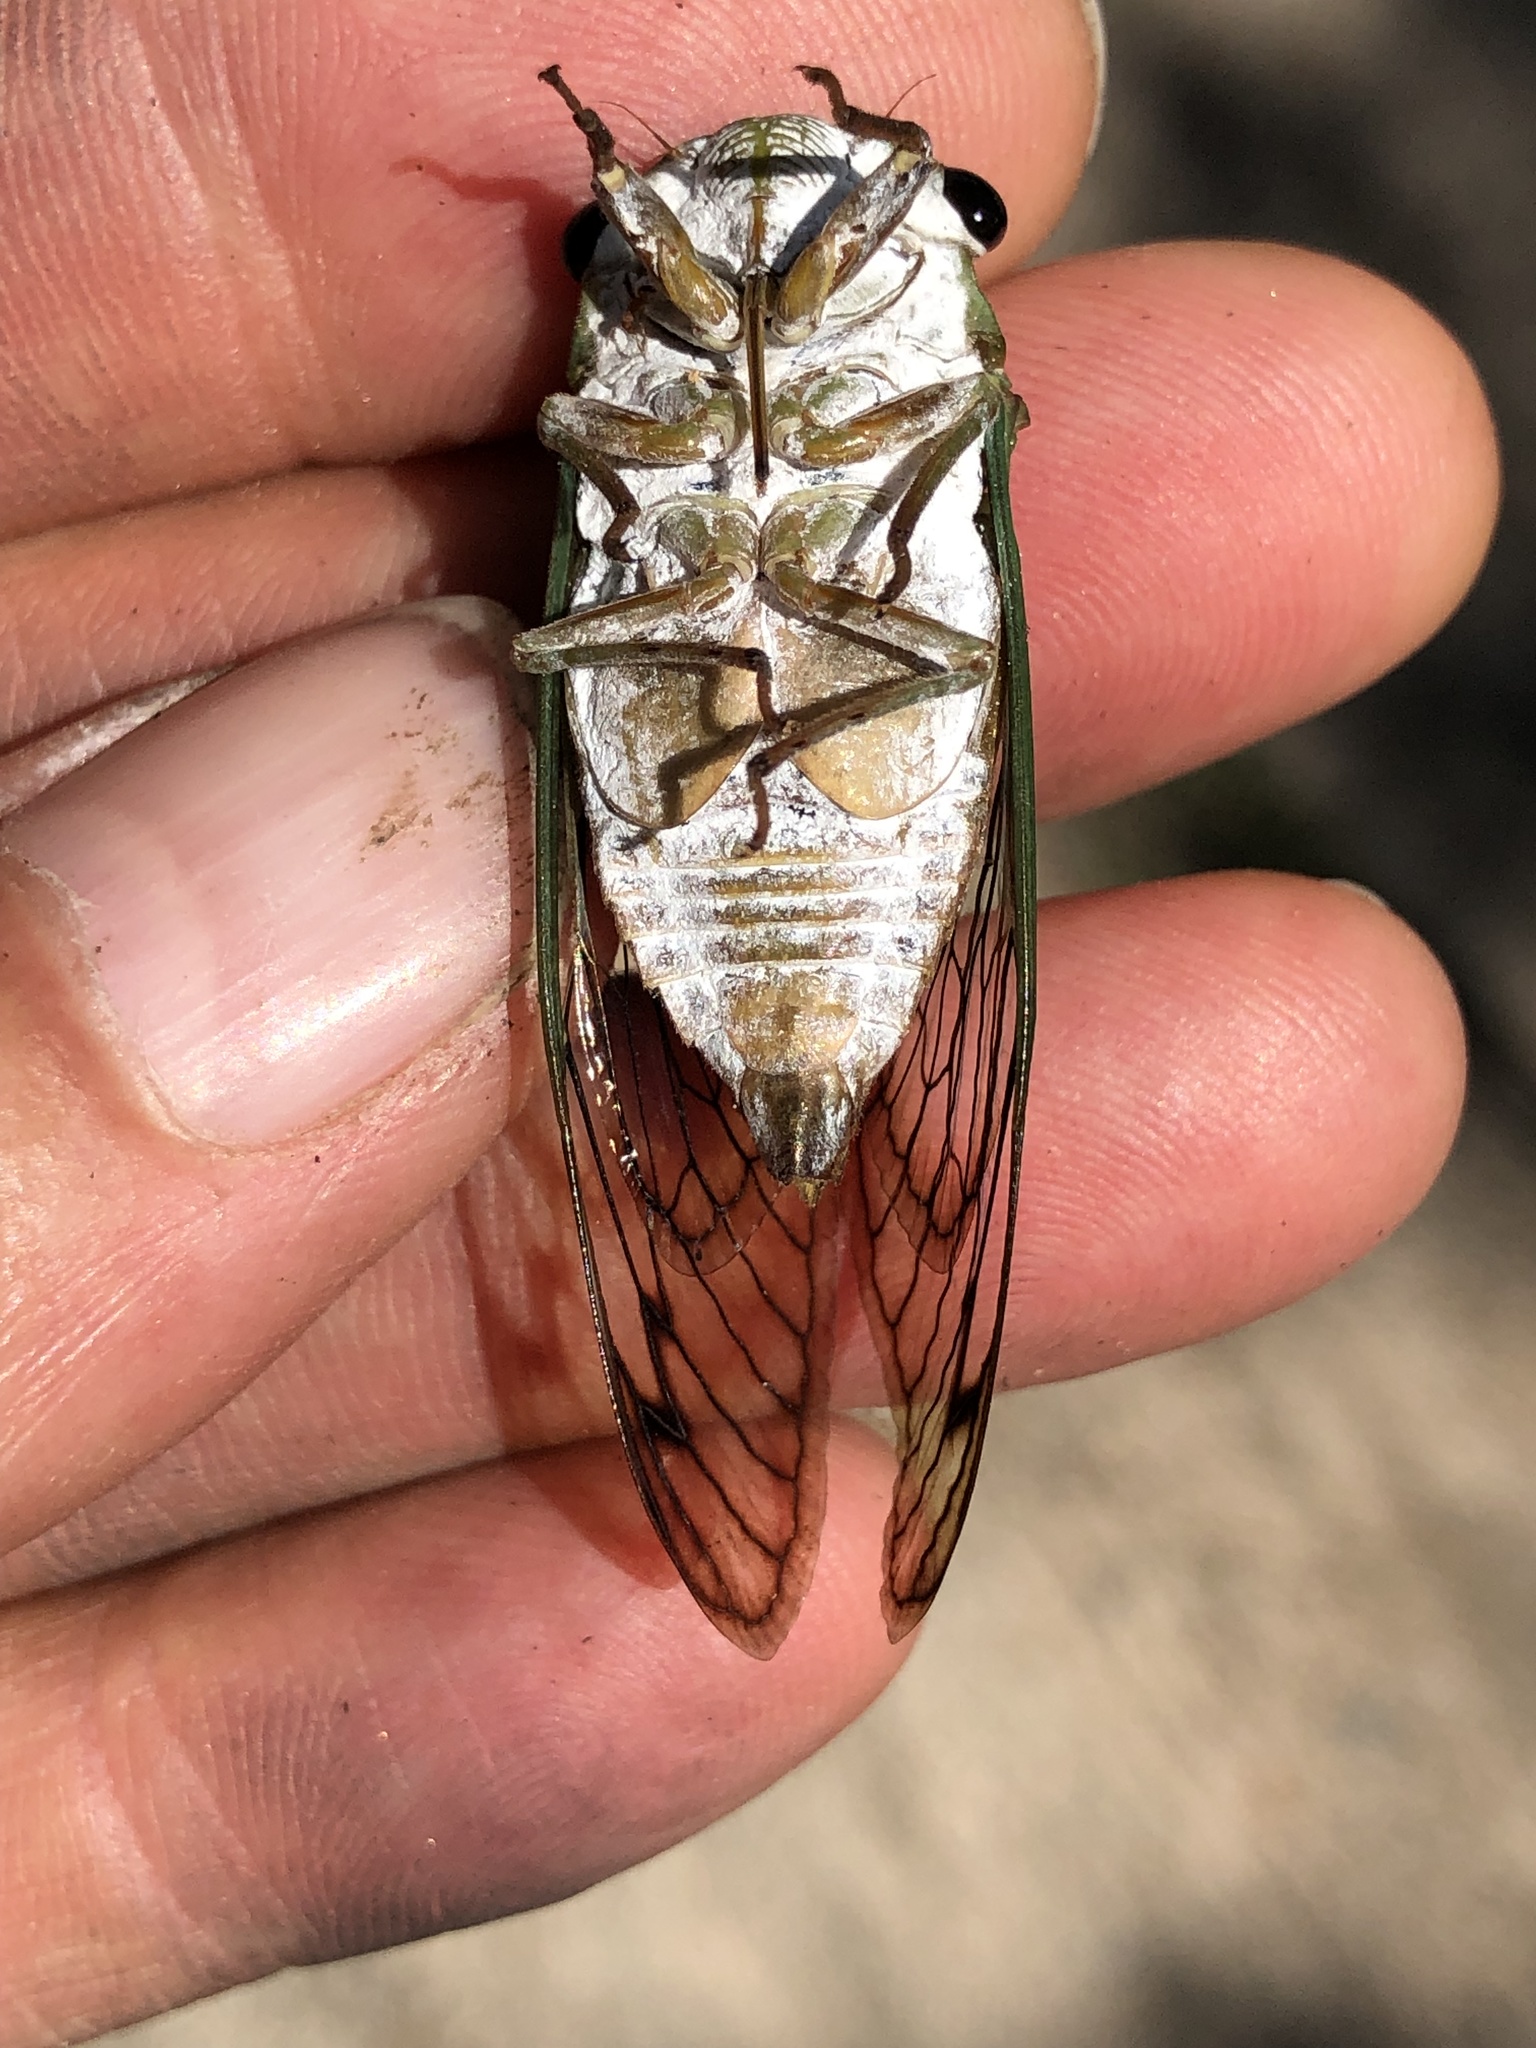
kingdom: Animalia
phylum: Arthropoda
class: Insecta
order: Hemiptera
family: Cicadidae
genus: Neotibicen
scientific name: Neotibicen superbus
